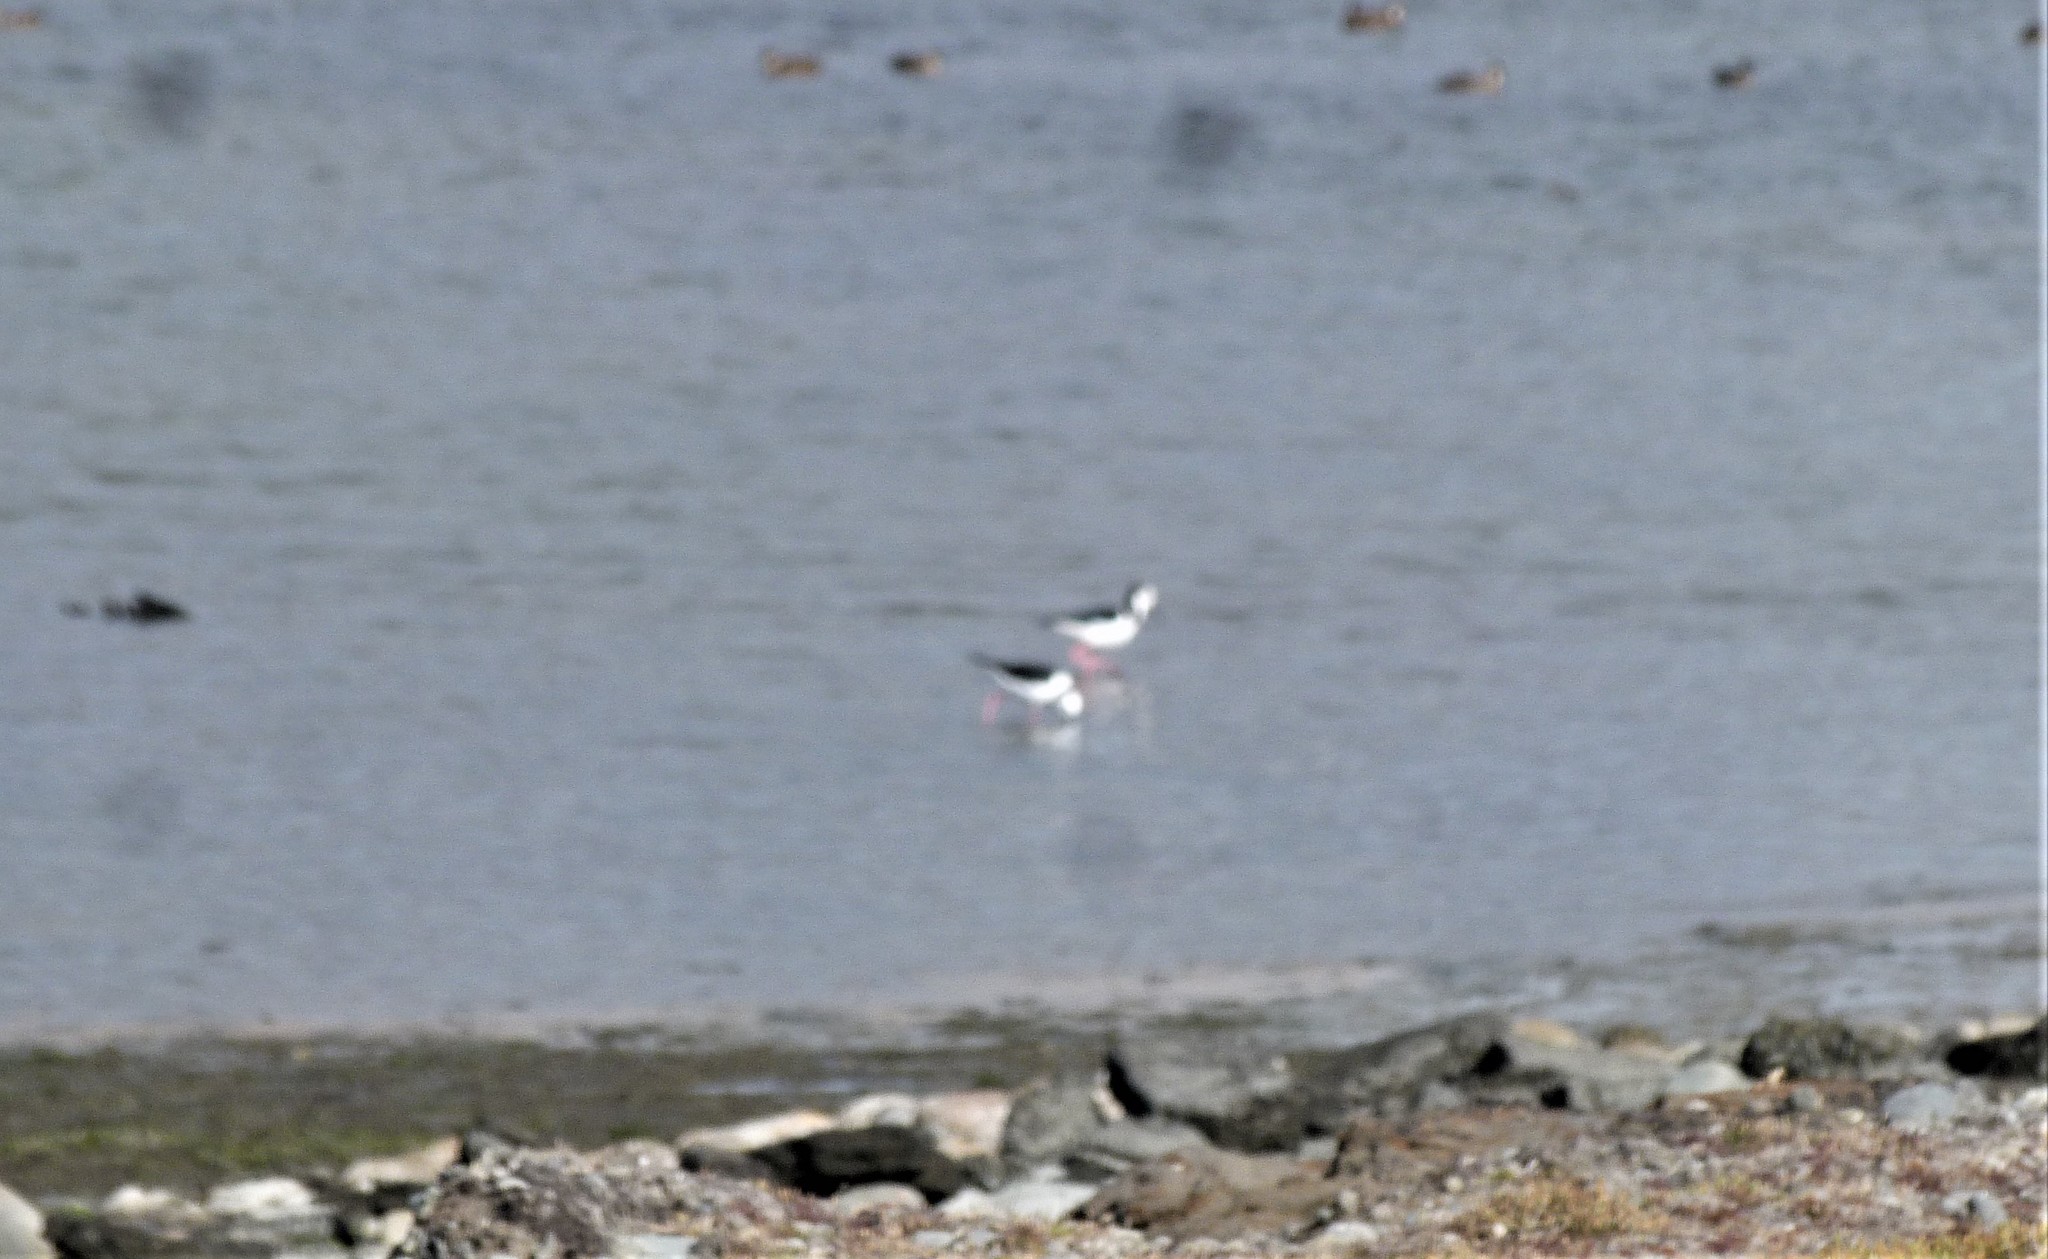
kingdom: Animalia
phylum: Chordata
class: Aves
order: Charadriiformes
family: Recurvirostridae
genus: Himantopus
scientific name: Himantopus leucocephalus
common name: White-headed stilt
